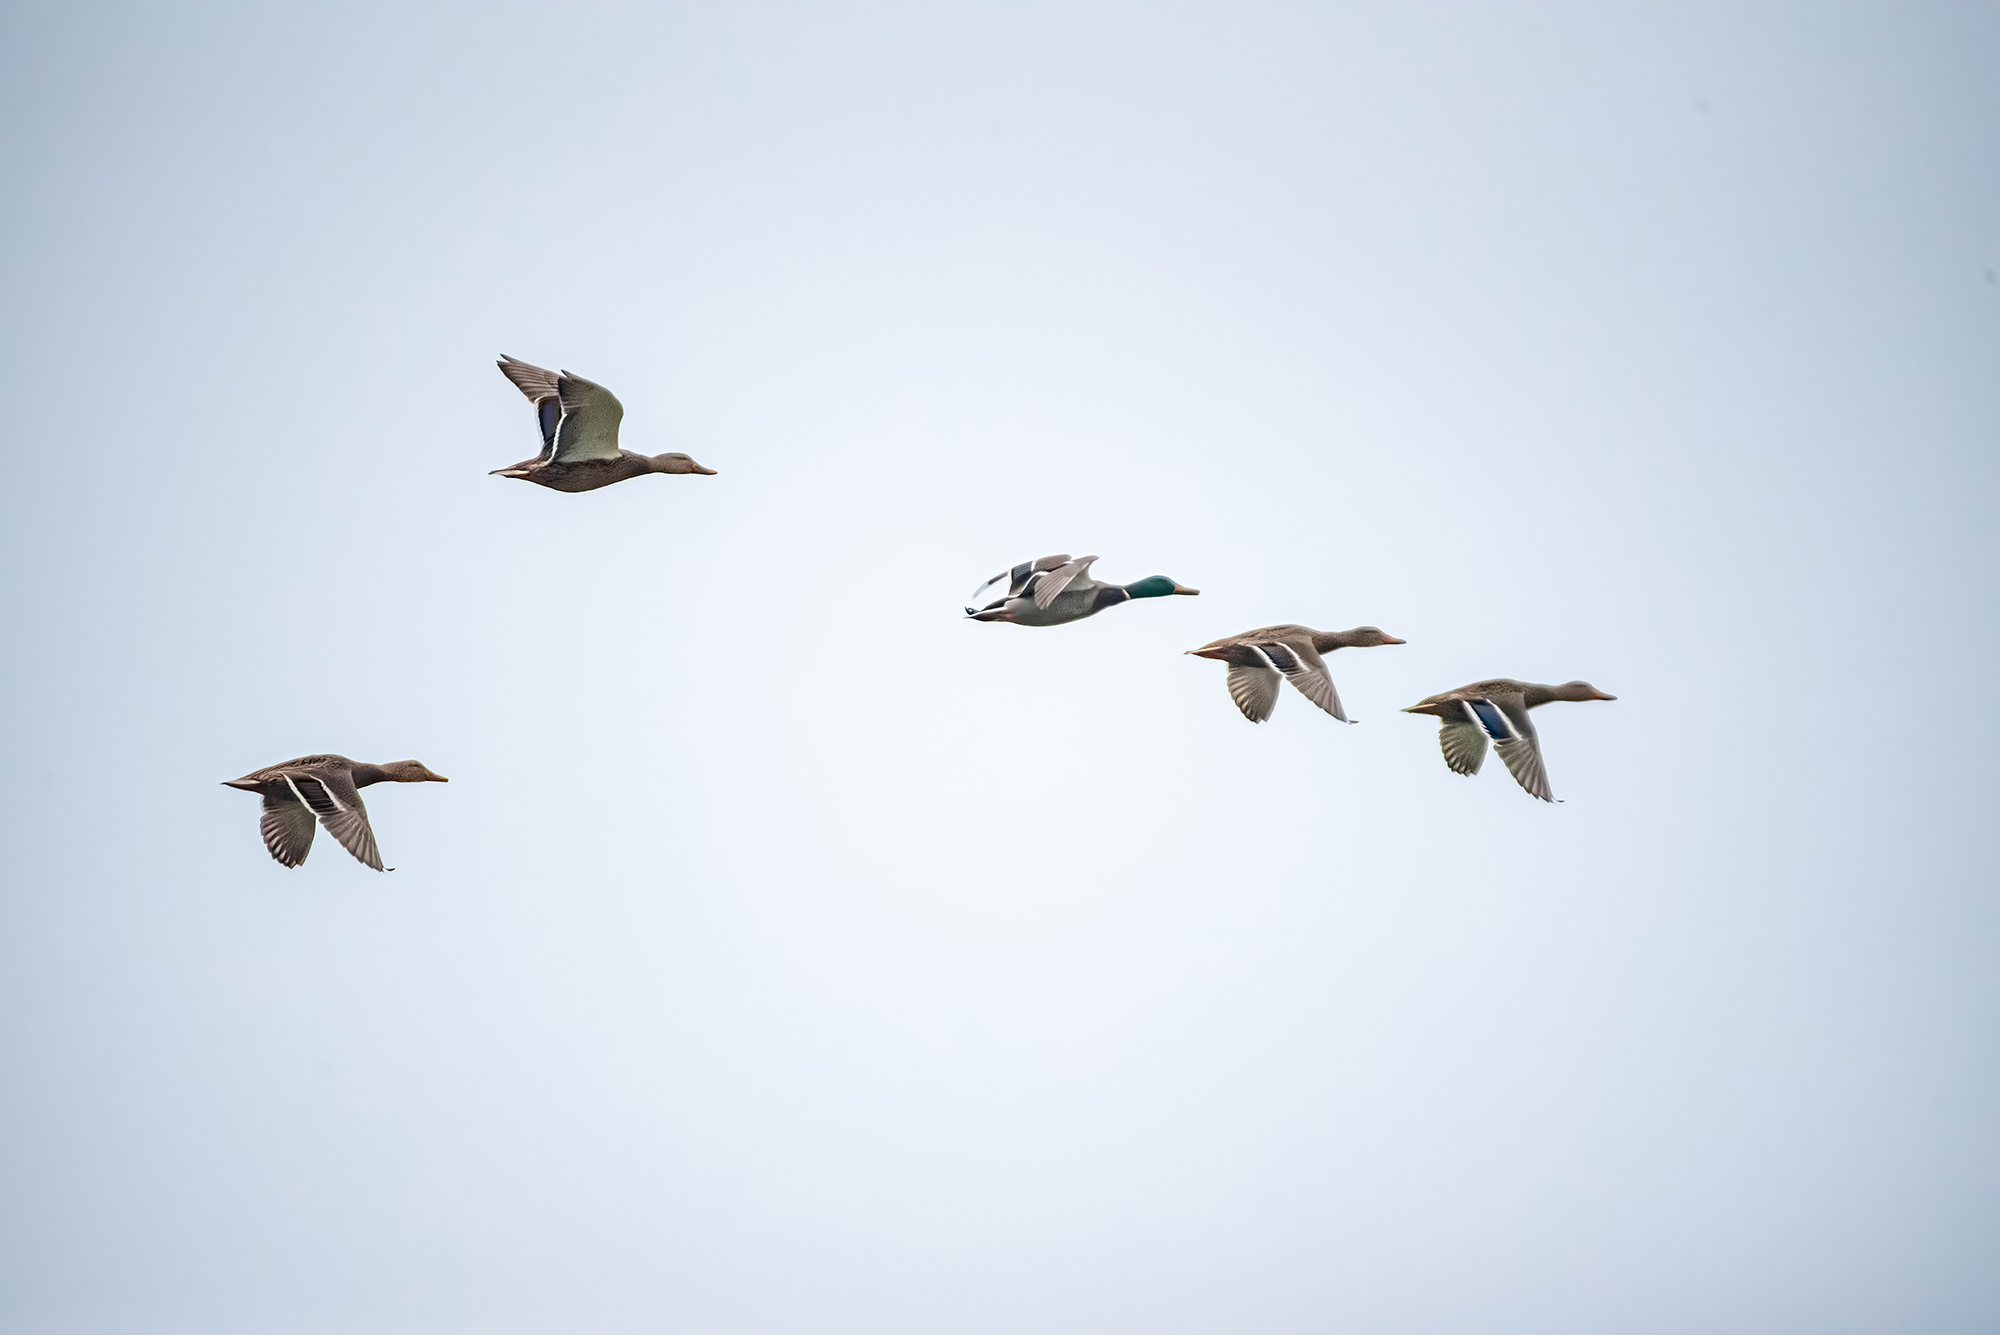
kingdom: Animalia
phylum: Chordata
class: Aves
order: Anseriformes
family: Anatidae
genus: Anas
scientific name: Anas platyrhynchos
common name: Mallard
